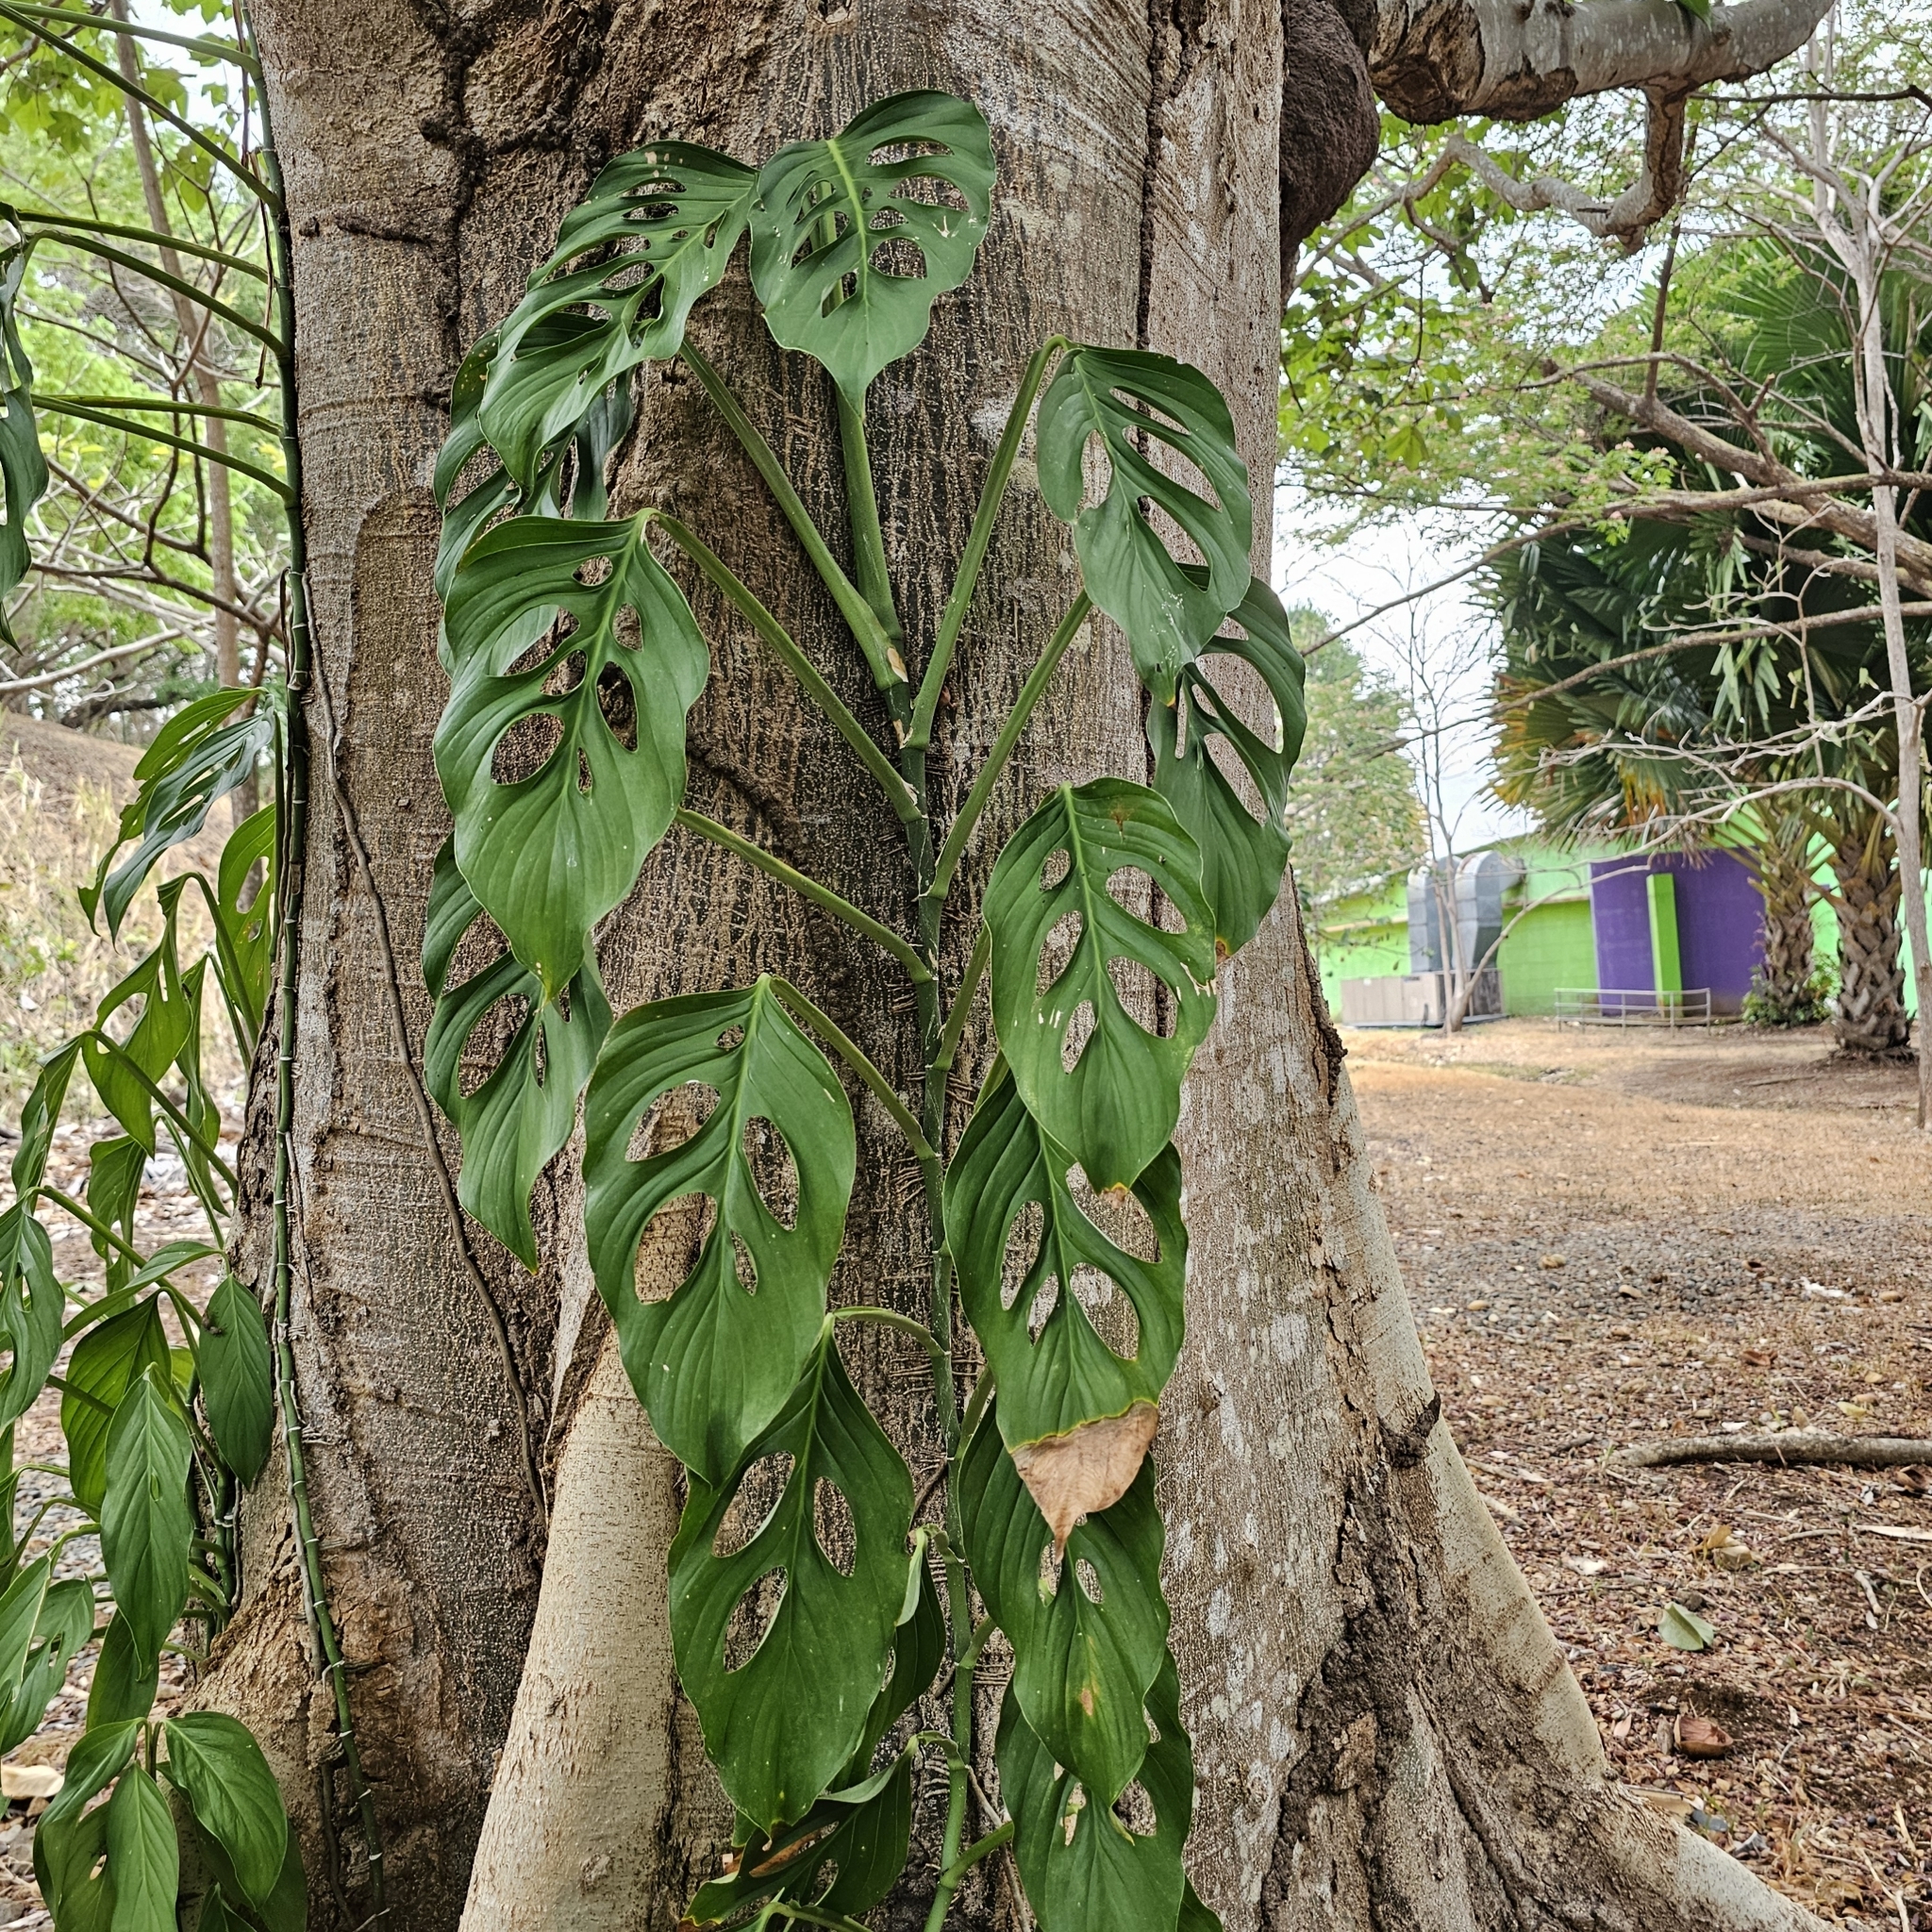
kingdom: Plantae
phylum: Tracheophyta
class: Liliopsida
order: Alismatales
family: Araceae
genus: Monstera
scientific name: Monstera adansonii
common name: Tarovine
